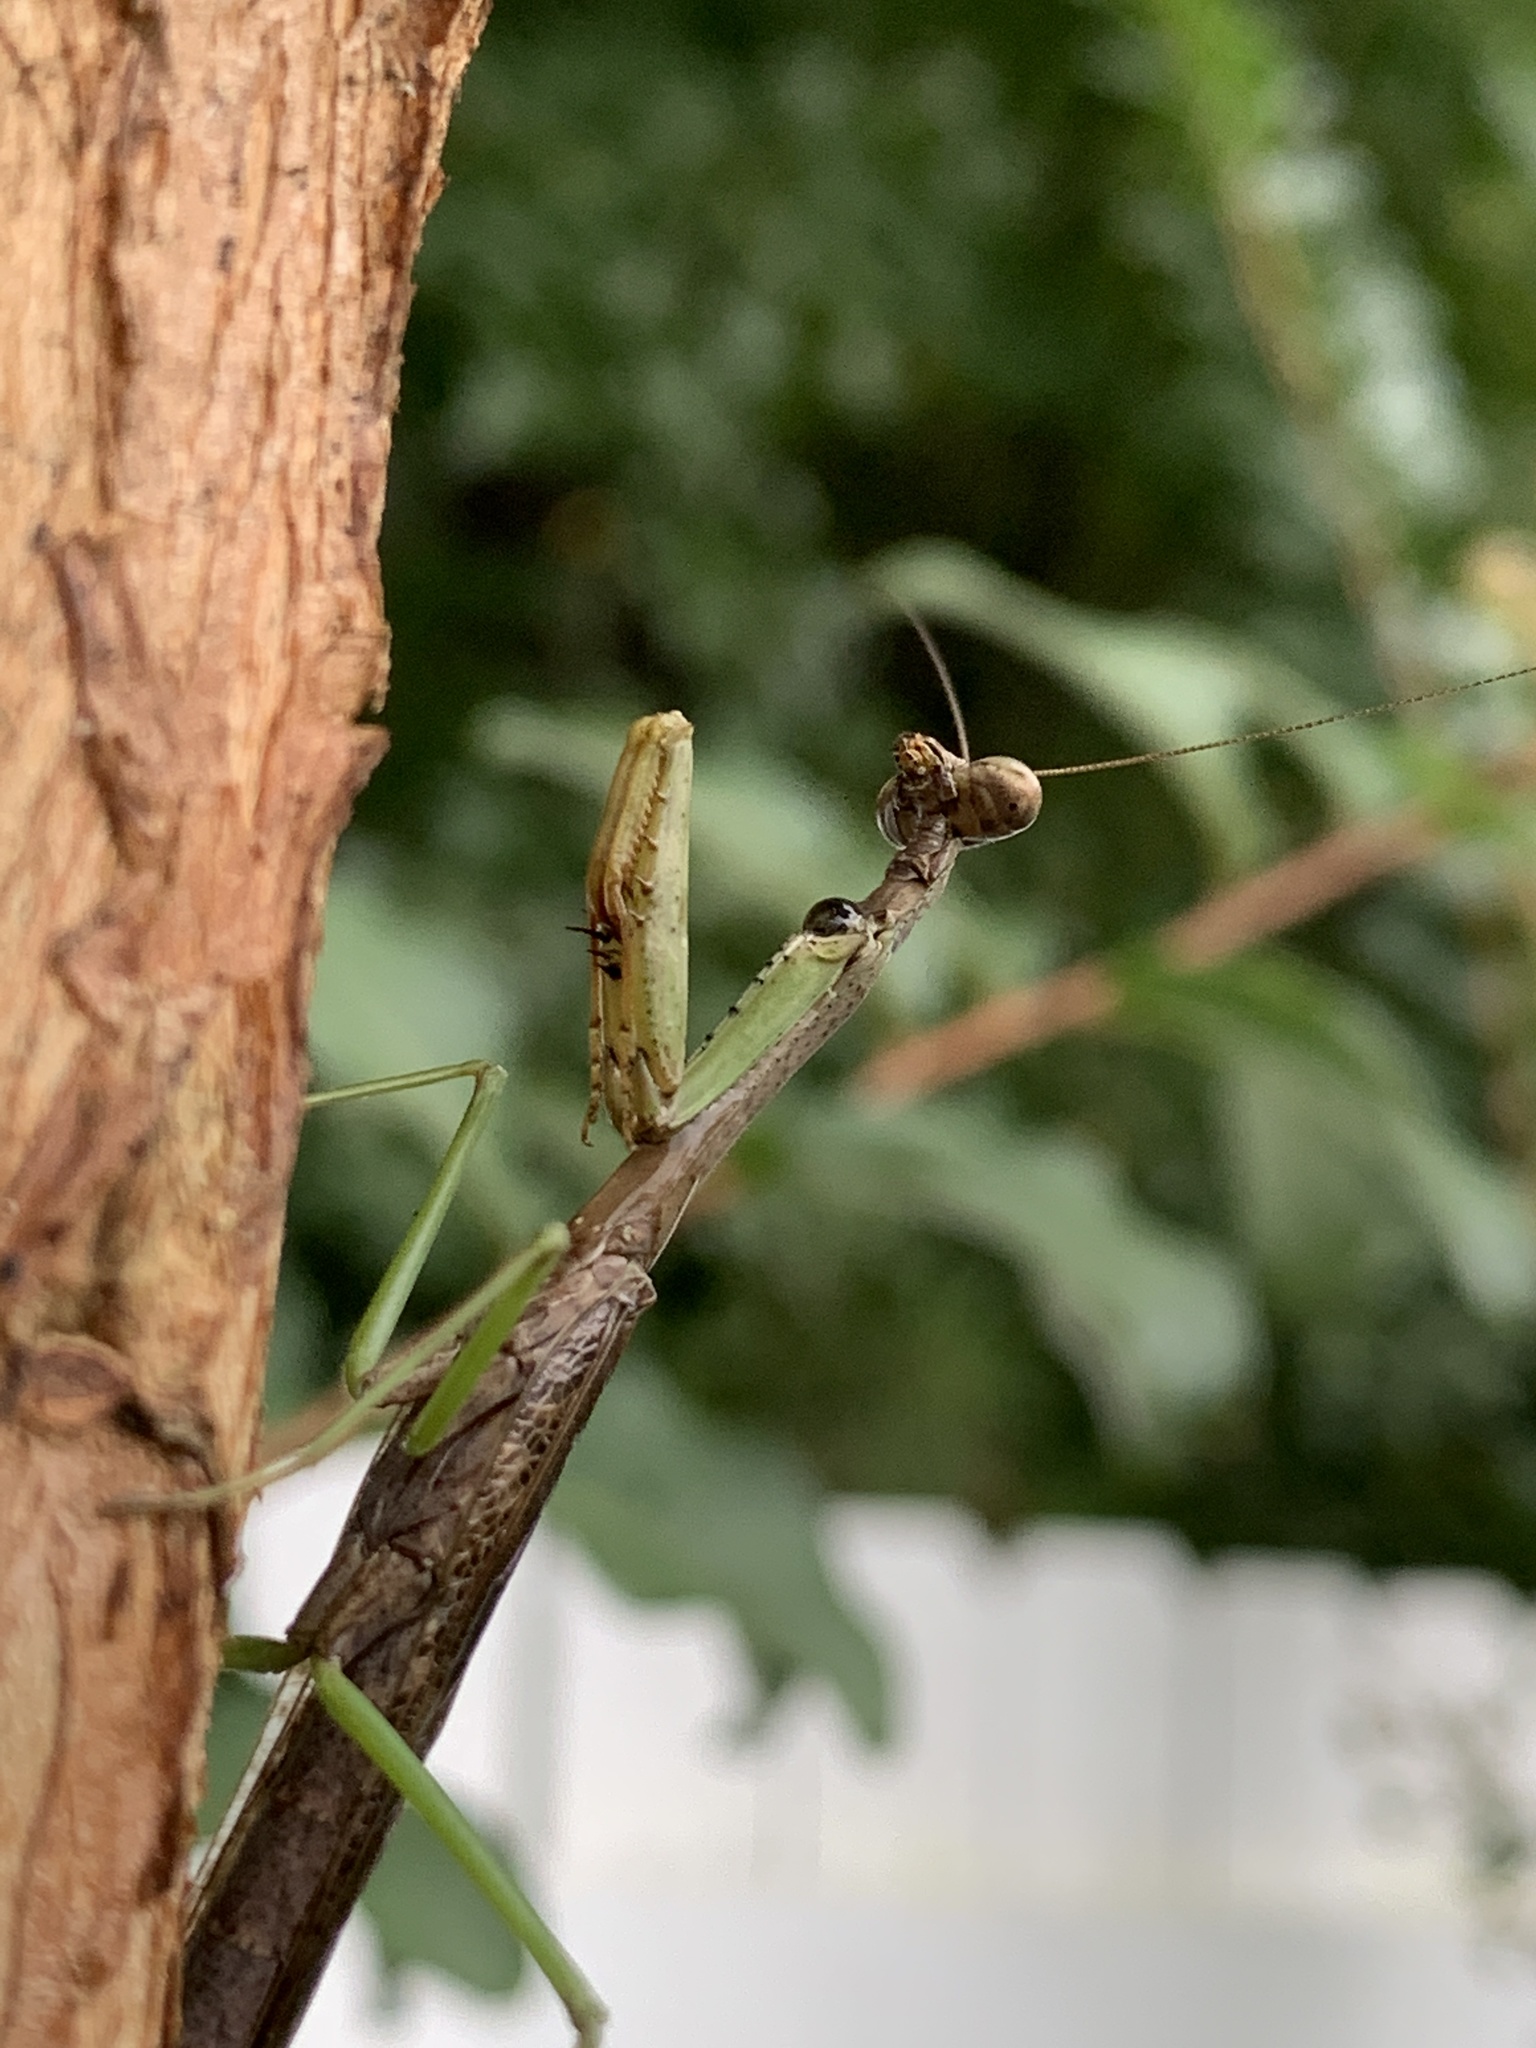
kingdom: Animalia
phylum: Arthropoda
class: Insecta
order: Mantodea
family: Mantidae
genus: Stagmomantis
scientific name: Stagmomantis carolina
